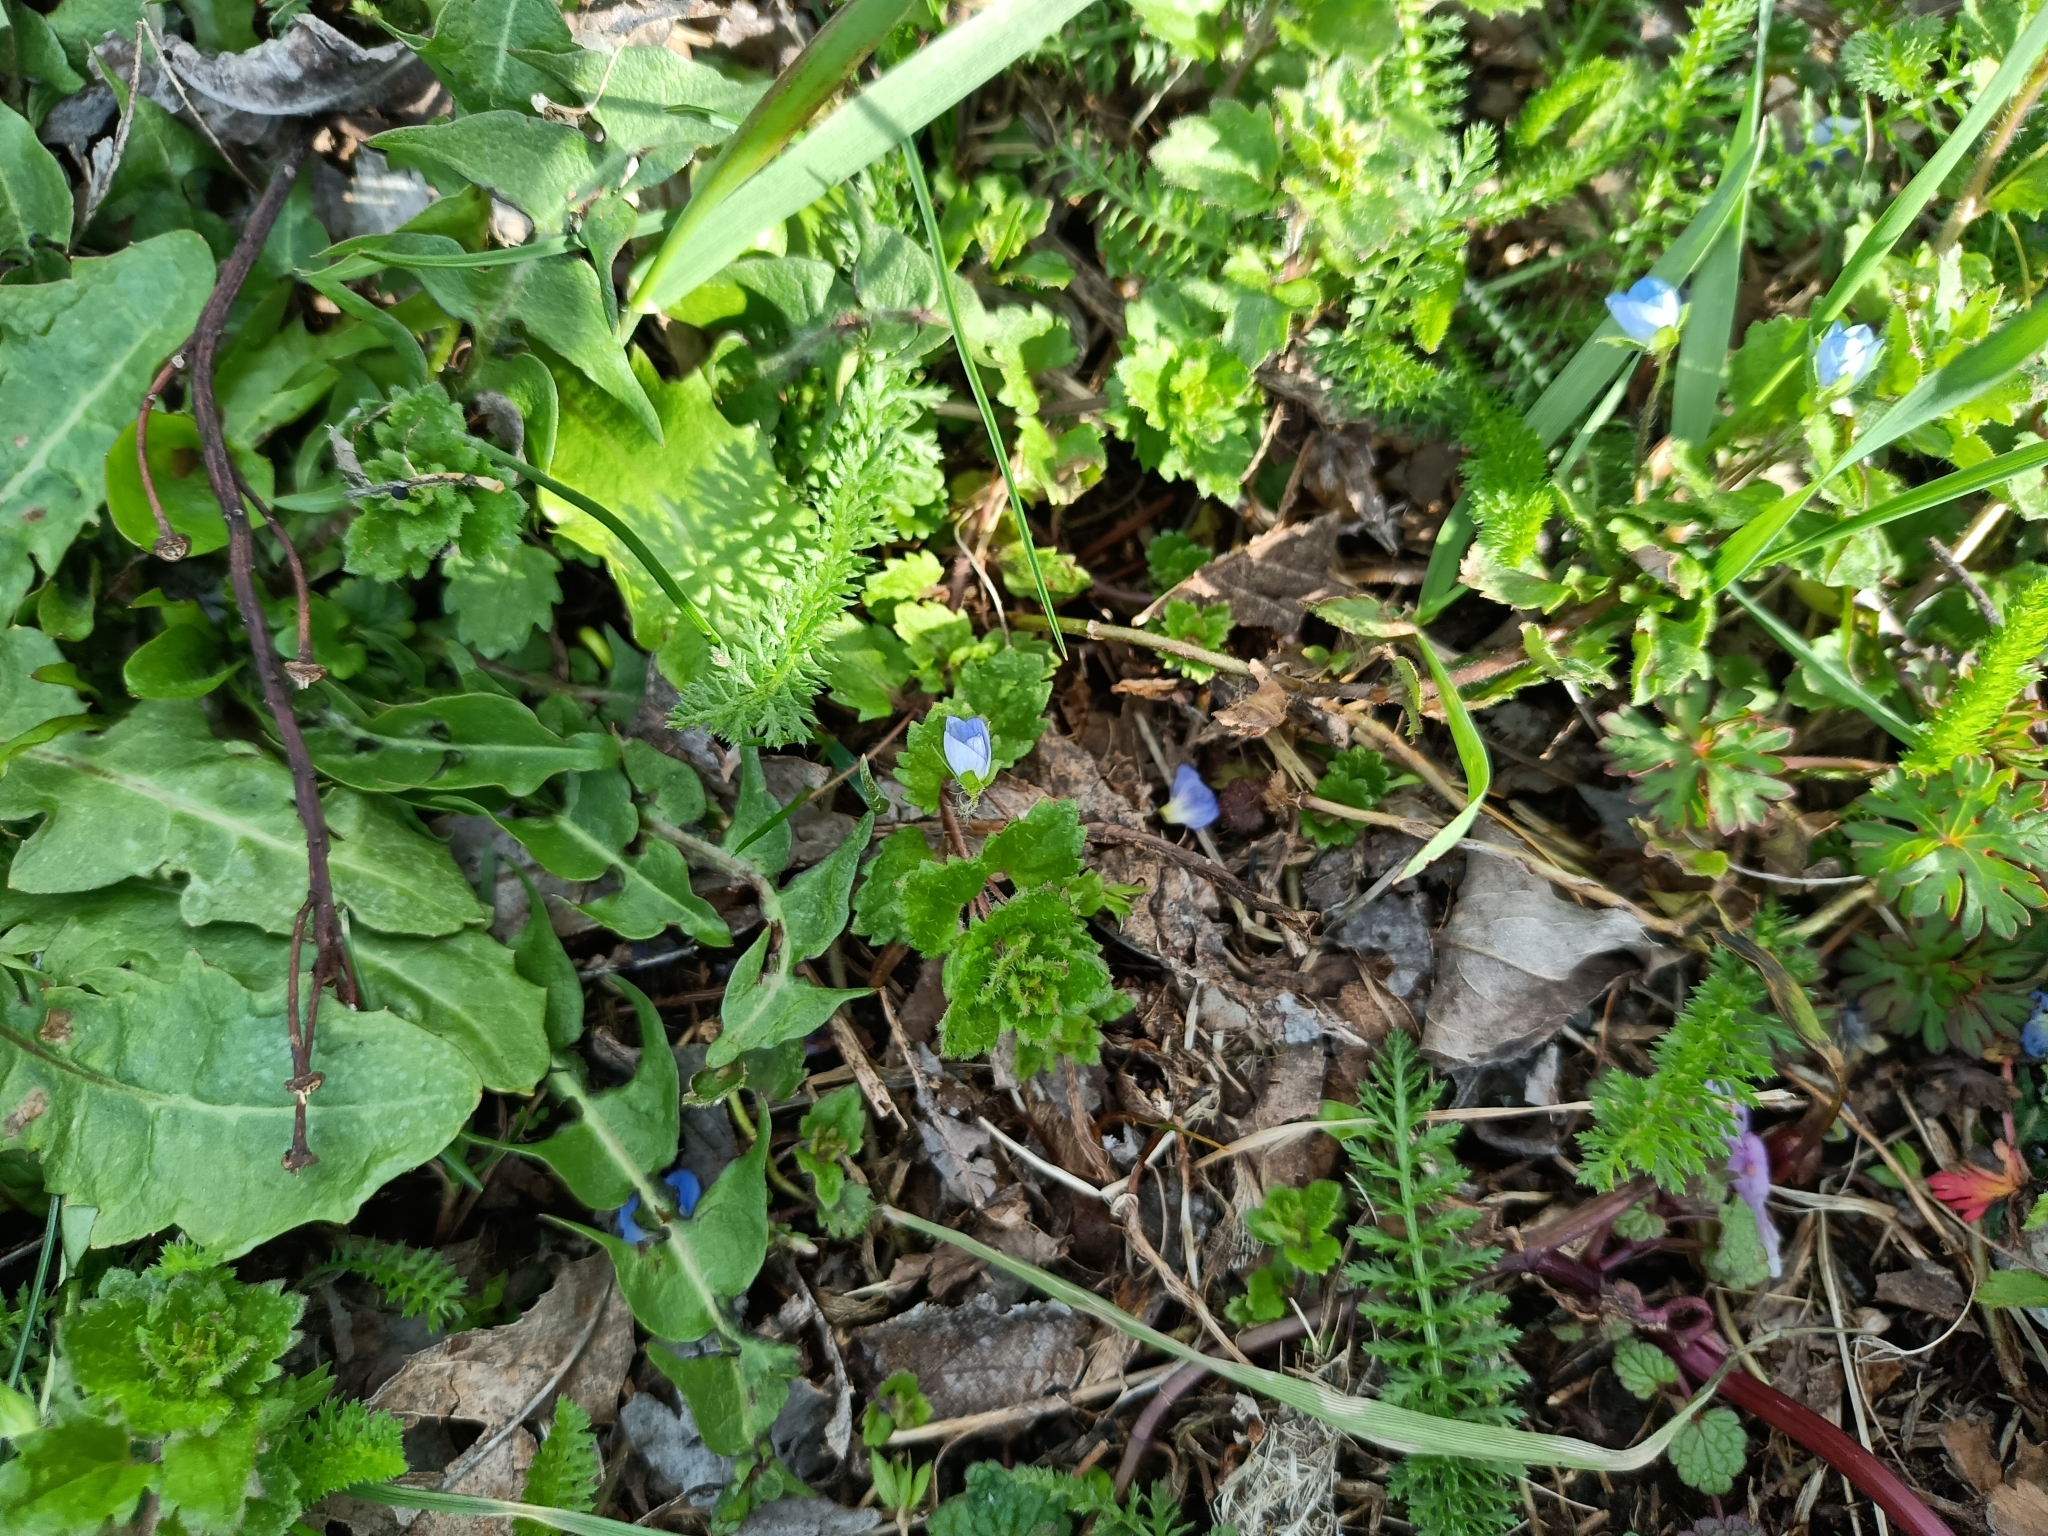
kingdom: Plantae
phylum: Tracheophyta
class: Magnoliopsida
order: Lamiales
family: Plantaginaceae
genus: Veronica
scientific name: Veronica persica
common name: Common field-speedwell
